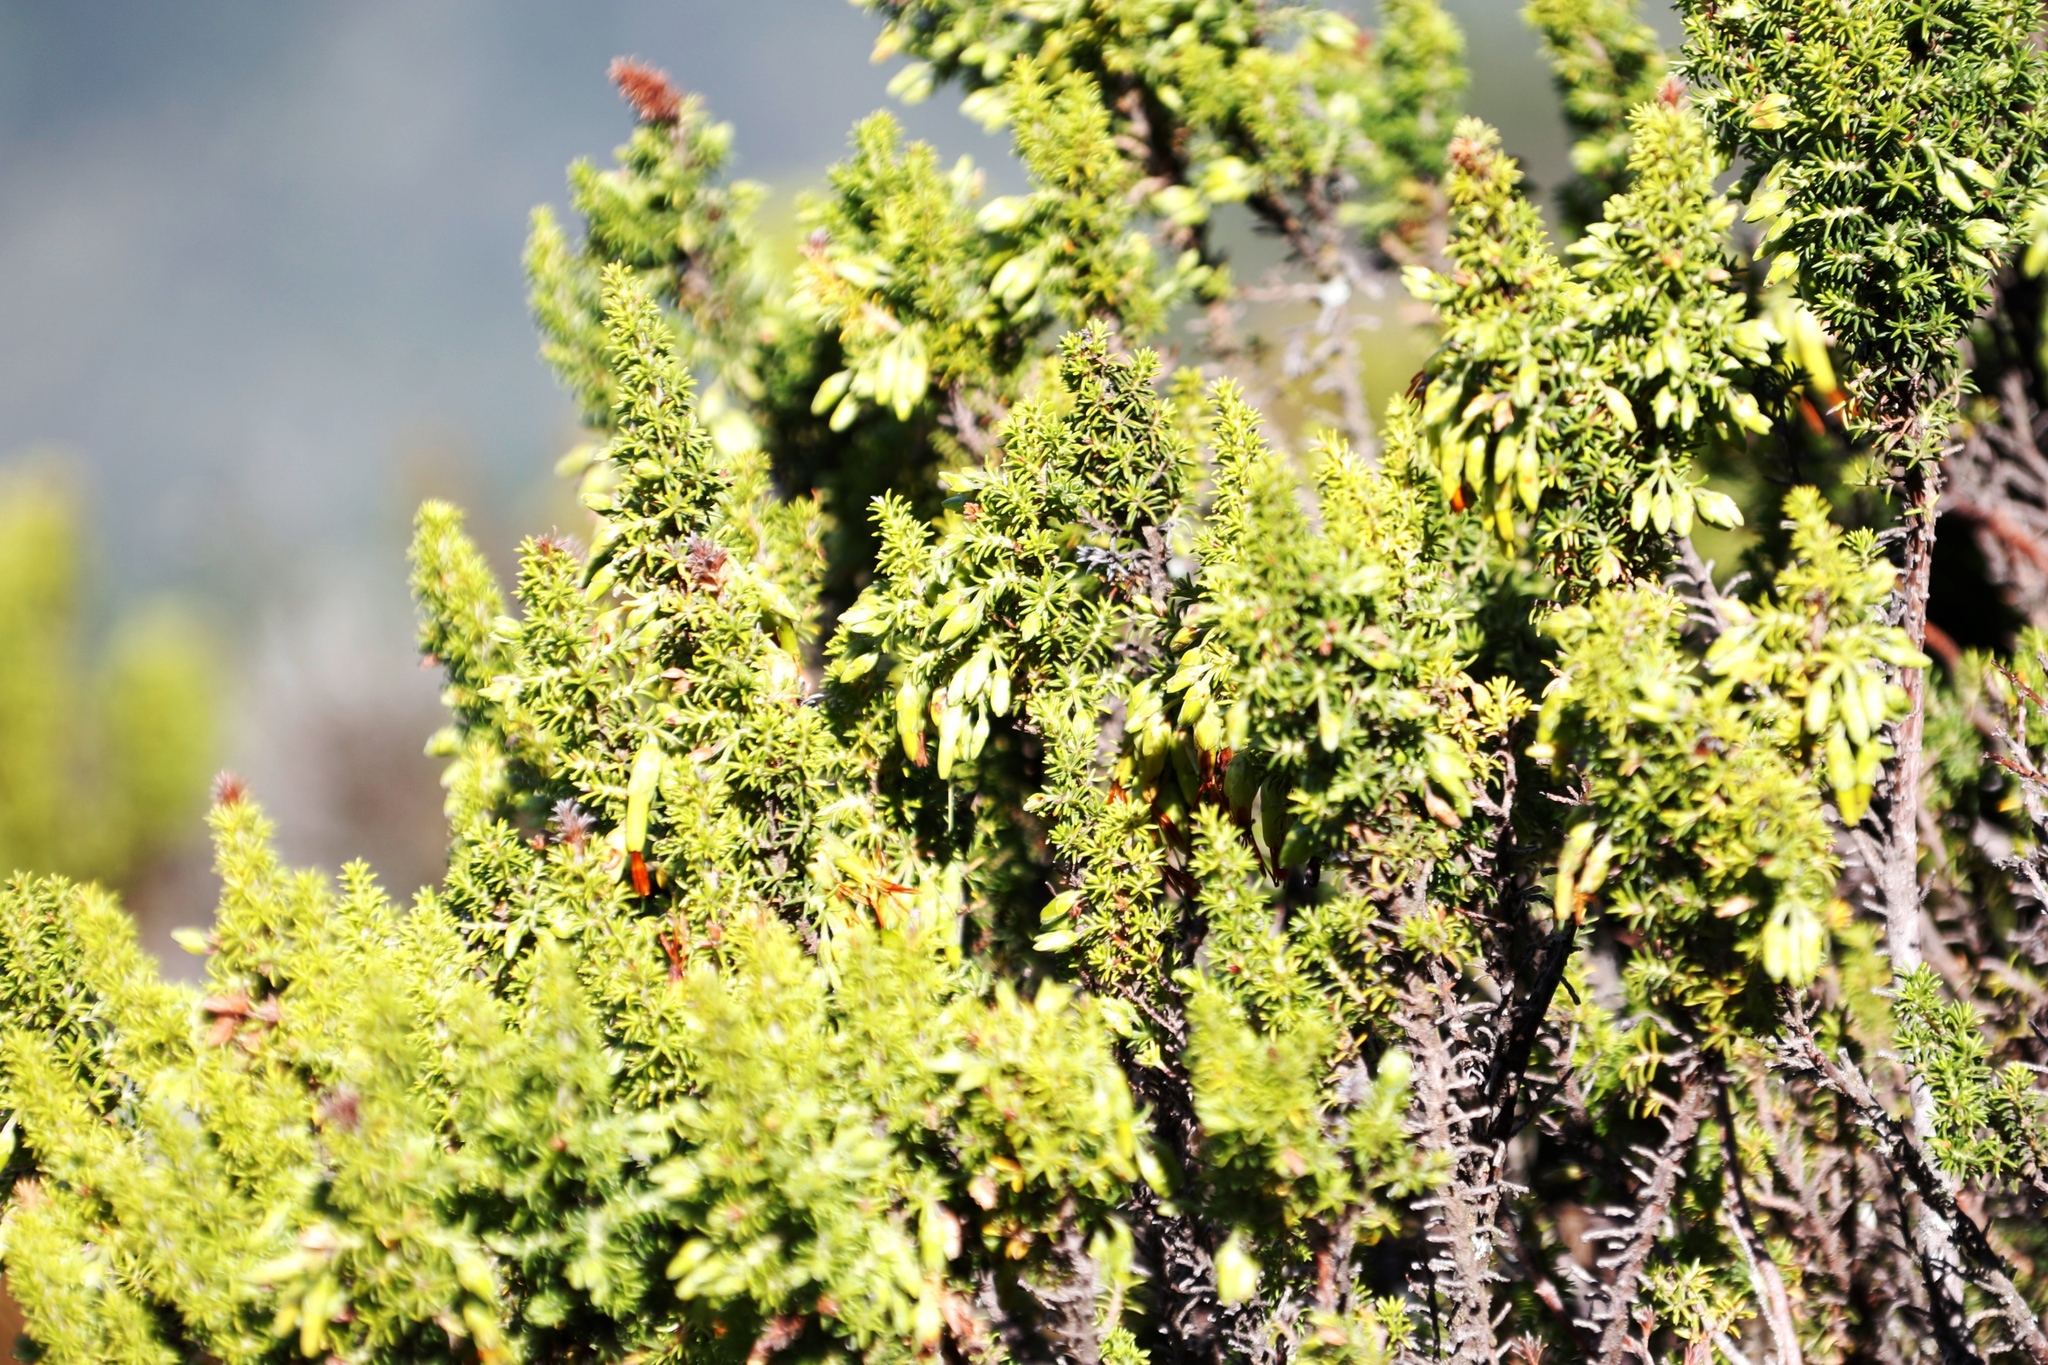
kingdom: Plantae
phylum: Tracheophyta
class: Magnoliopsida
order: Ericales
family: Ericaceae
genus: Erica
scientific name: Erica coccinea
